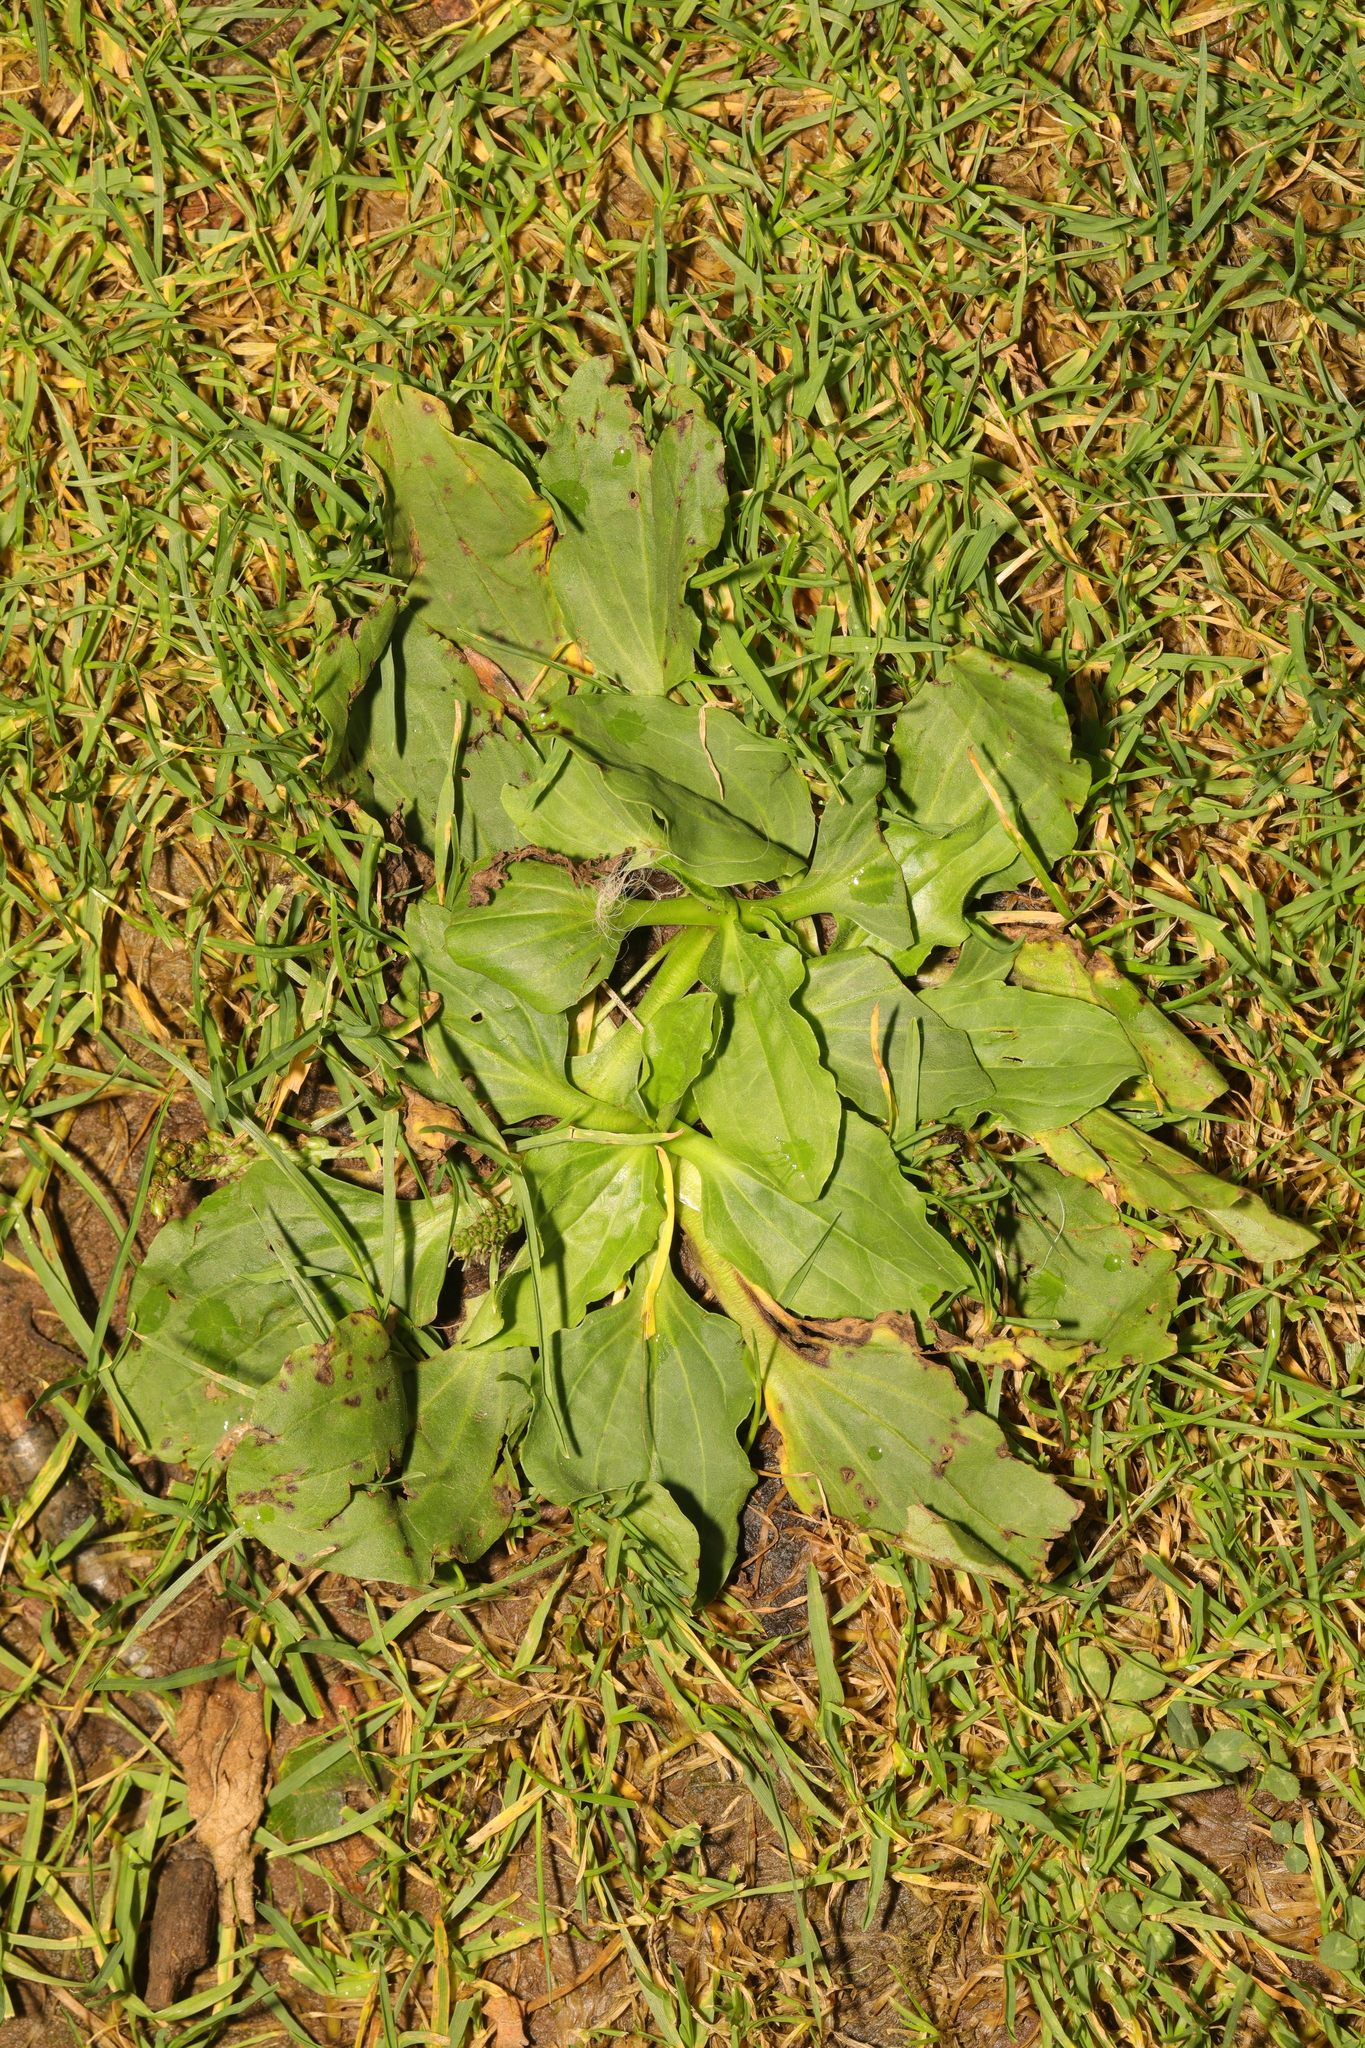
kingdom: Plantae
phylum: Tracheophyta
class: Magnoliopsida
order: Lamiales
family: Plantaginaceae
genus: Plantago
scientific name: Plantago major
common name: Common plantain
